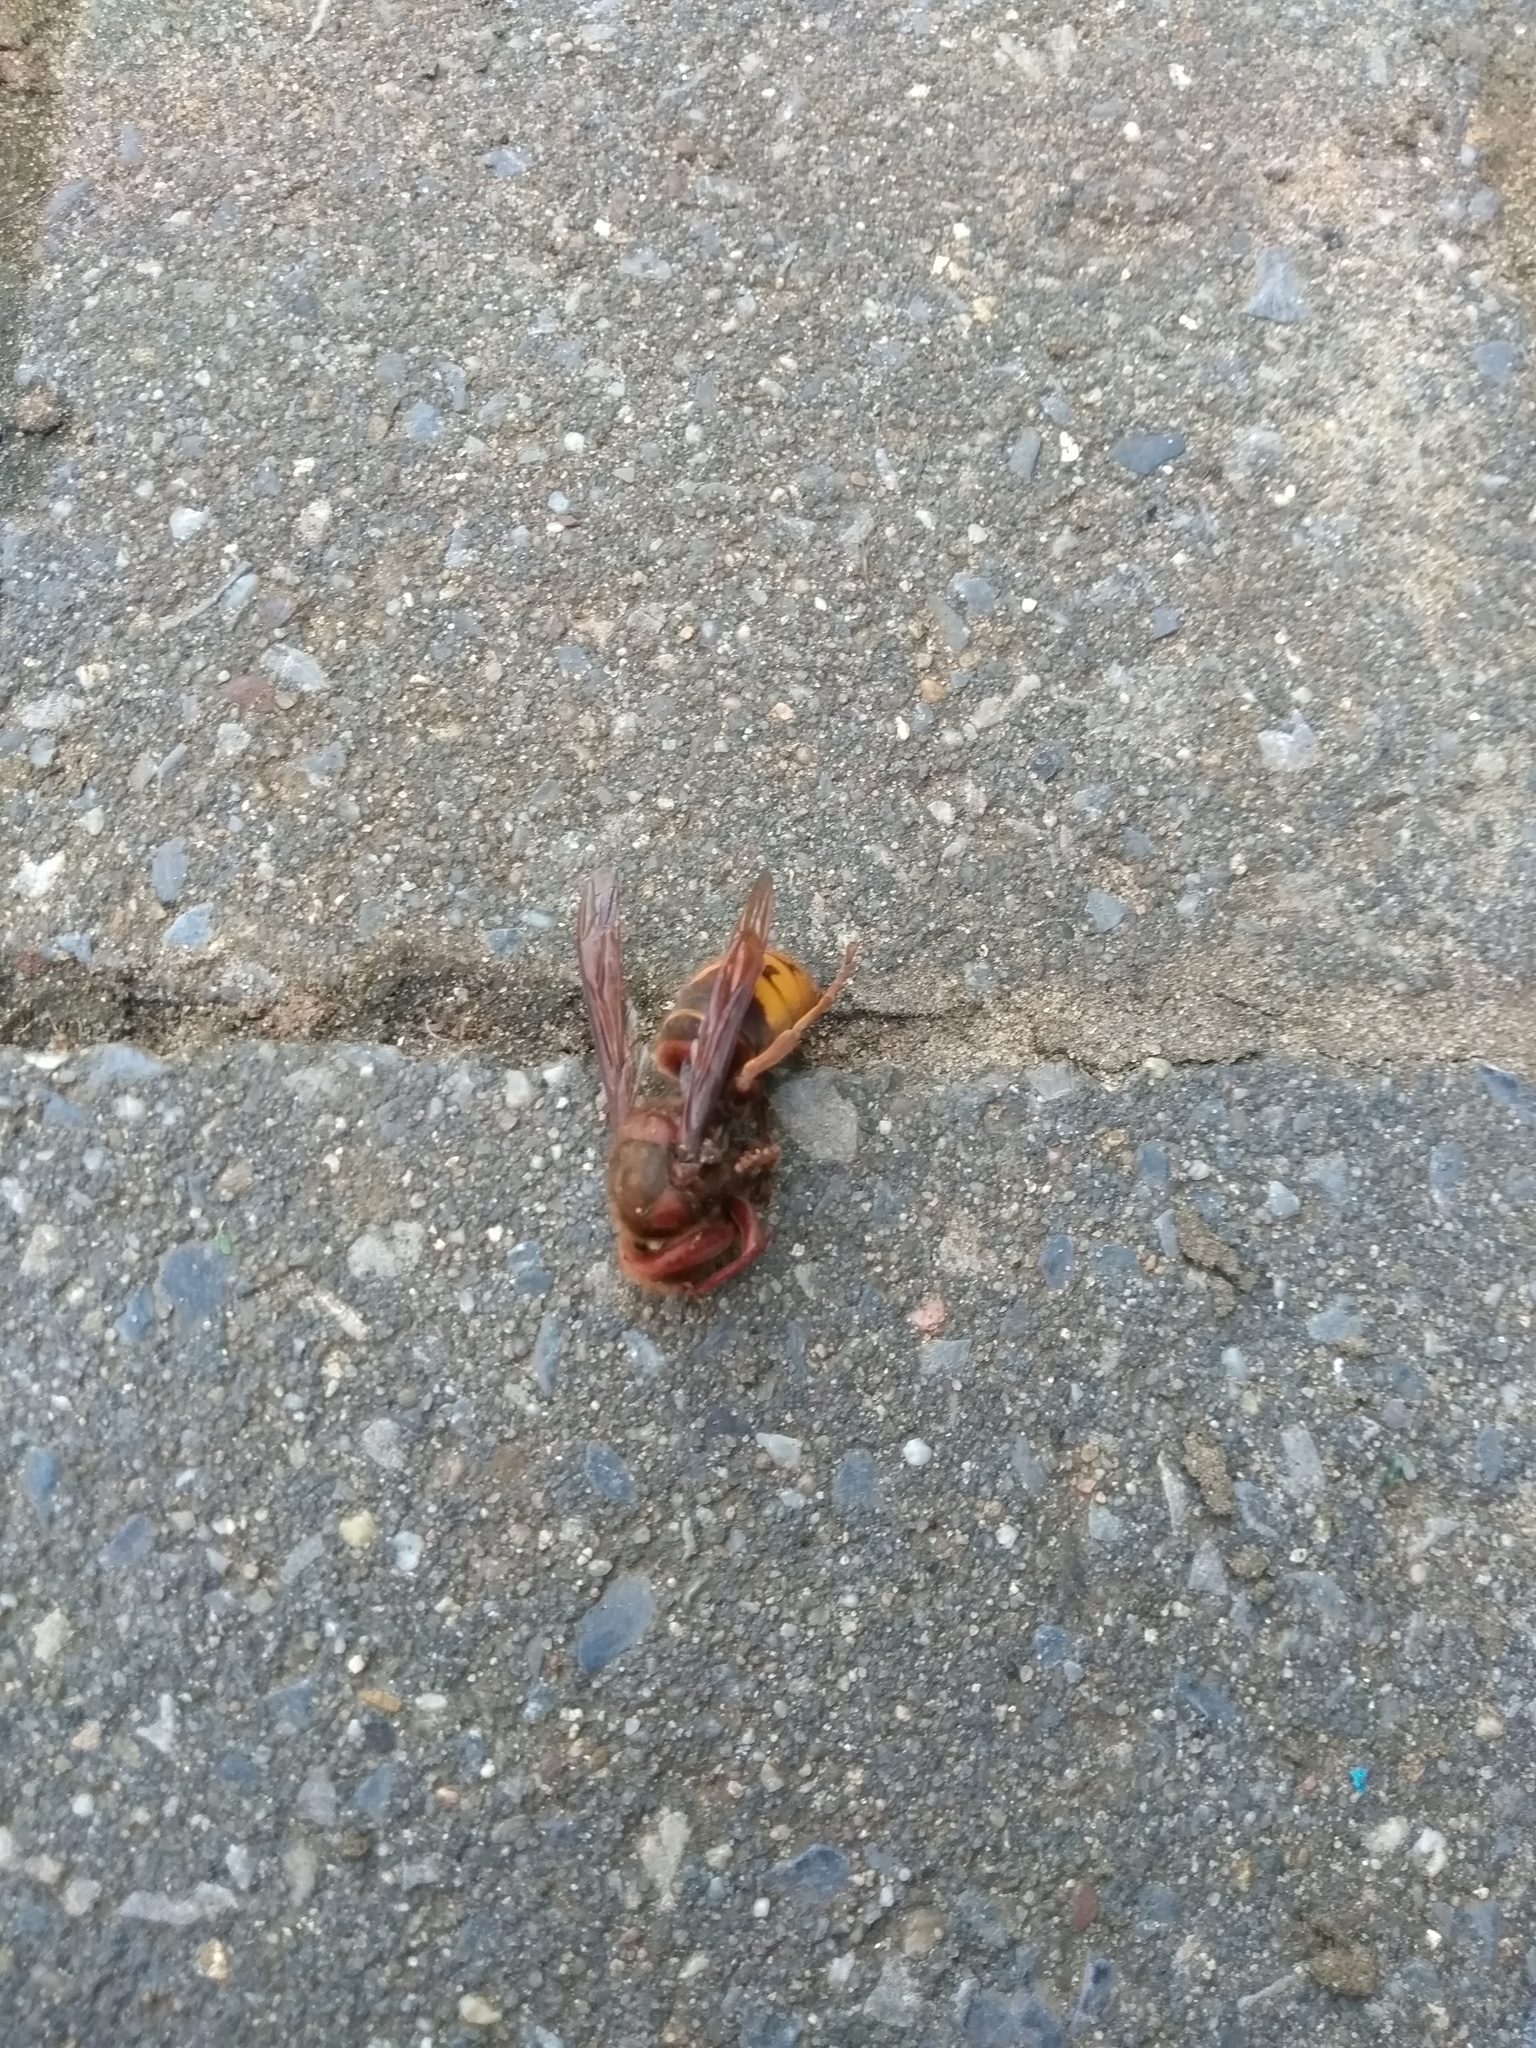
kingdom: Animalia
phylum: Arthropoda
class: Insecta
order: Hymenoptera
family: Vespidae
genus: Vespa
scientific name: Vespa crabro
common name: Hornet
